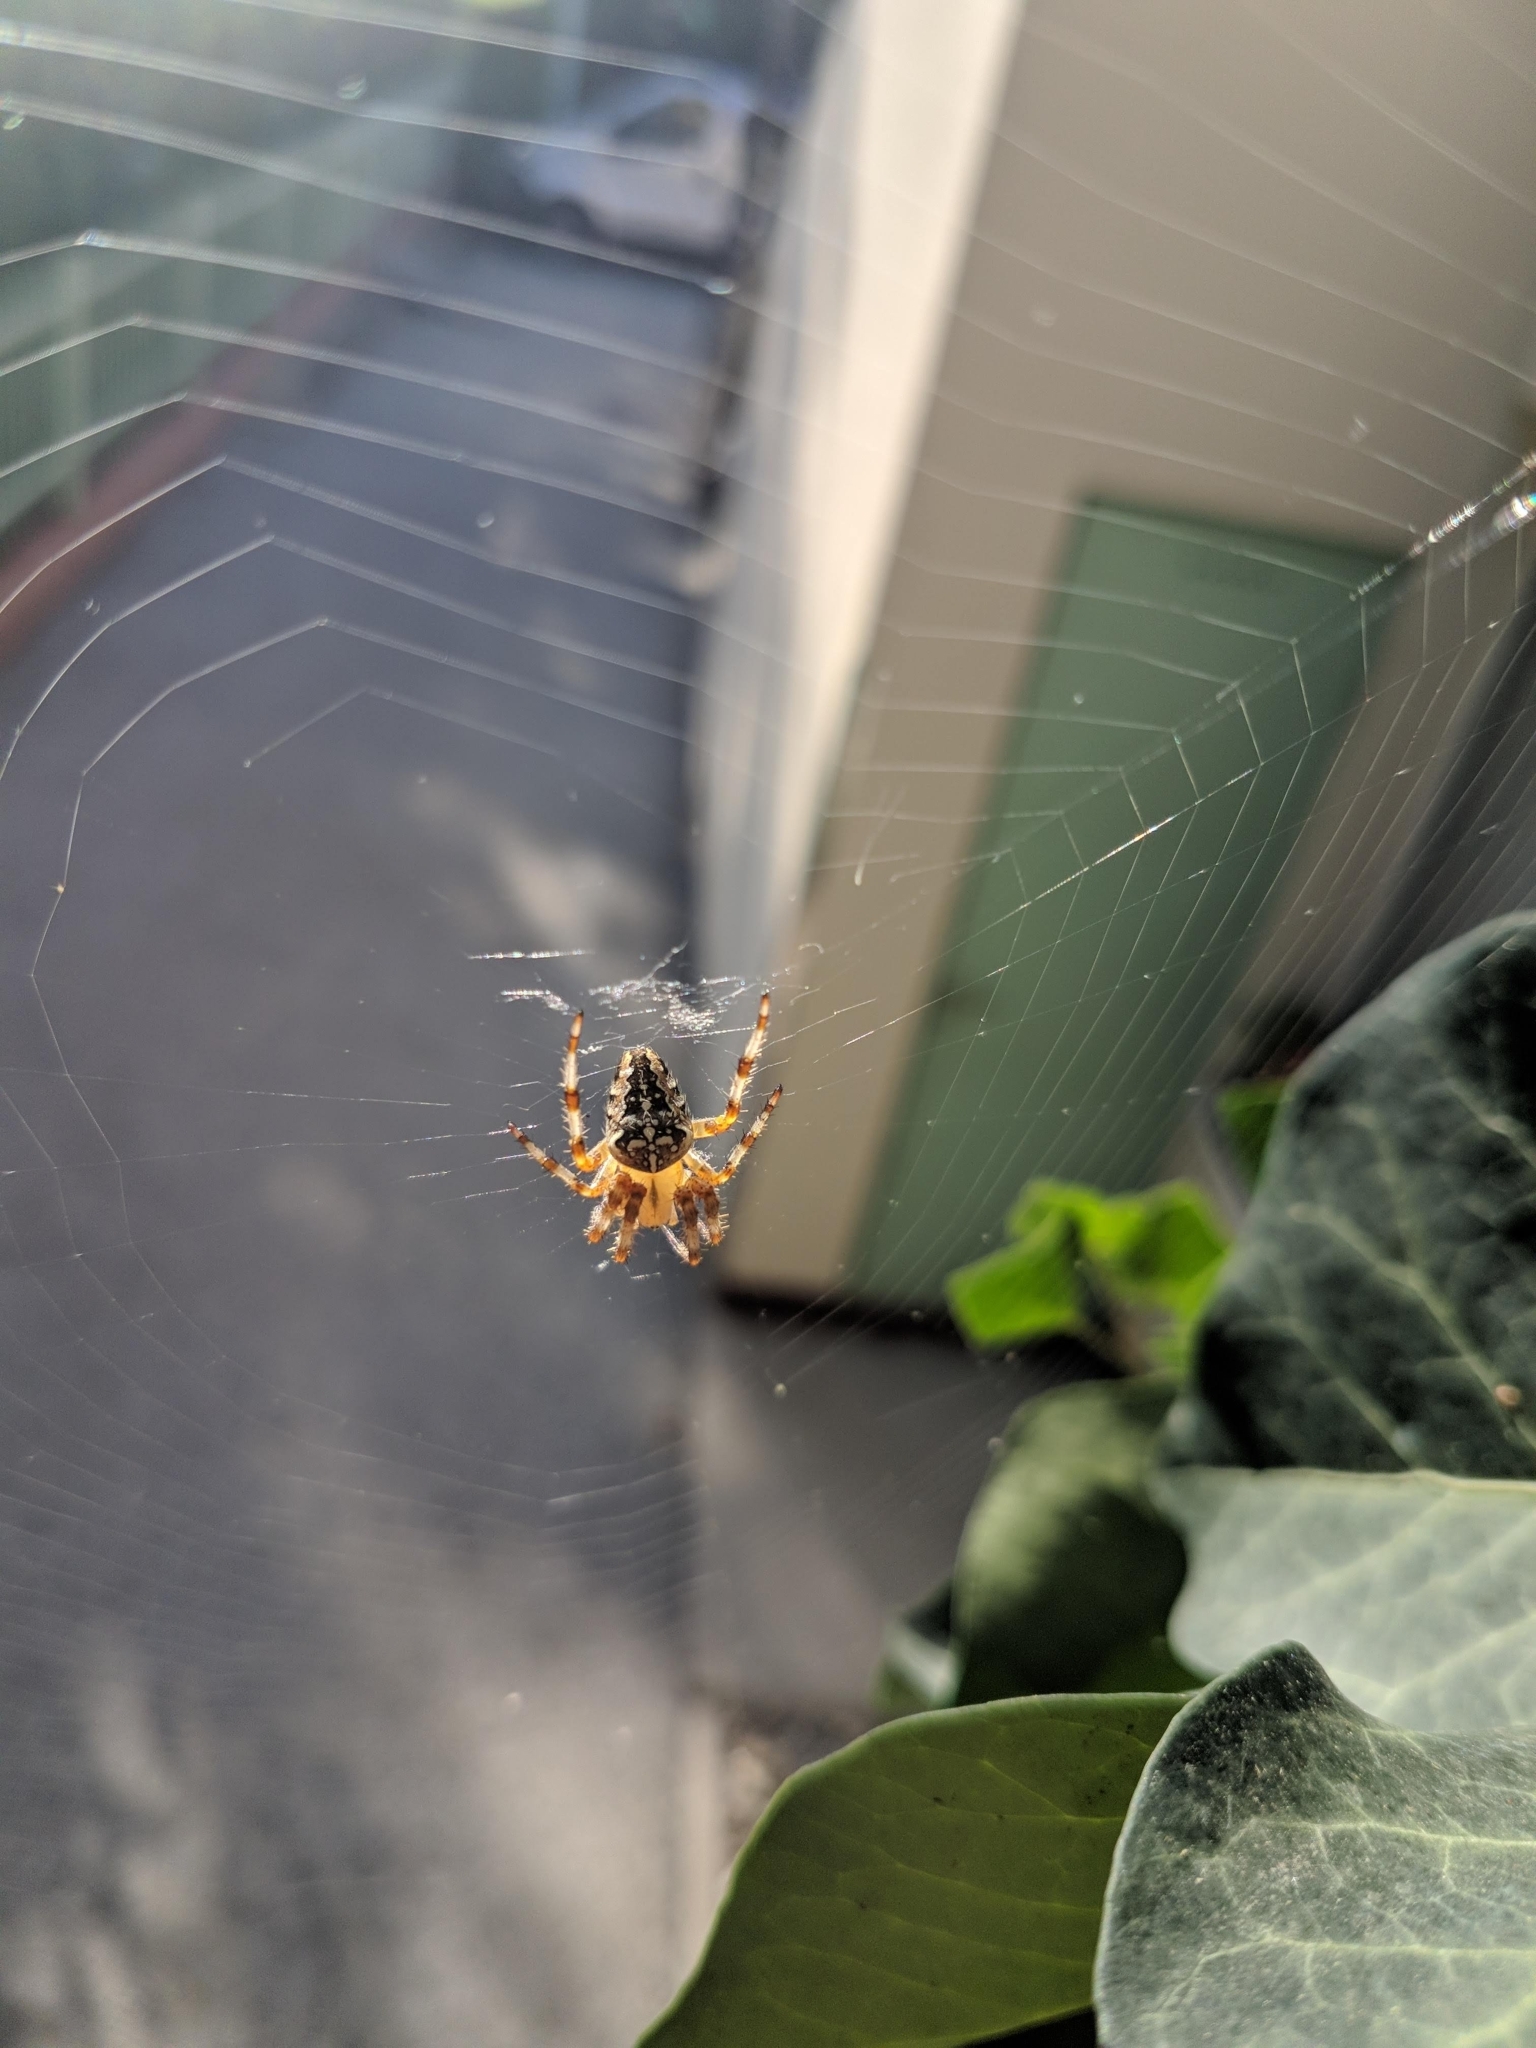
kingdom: Animalia
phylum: Arthropoda
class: Arachnida
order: Araneae
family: Araneidae
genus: Araneus
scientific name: Araneus diadematus
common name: Cross orbweaver
